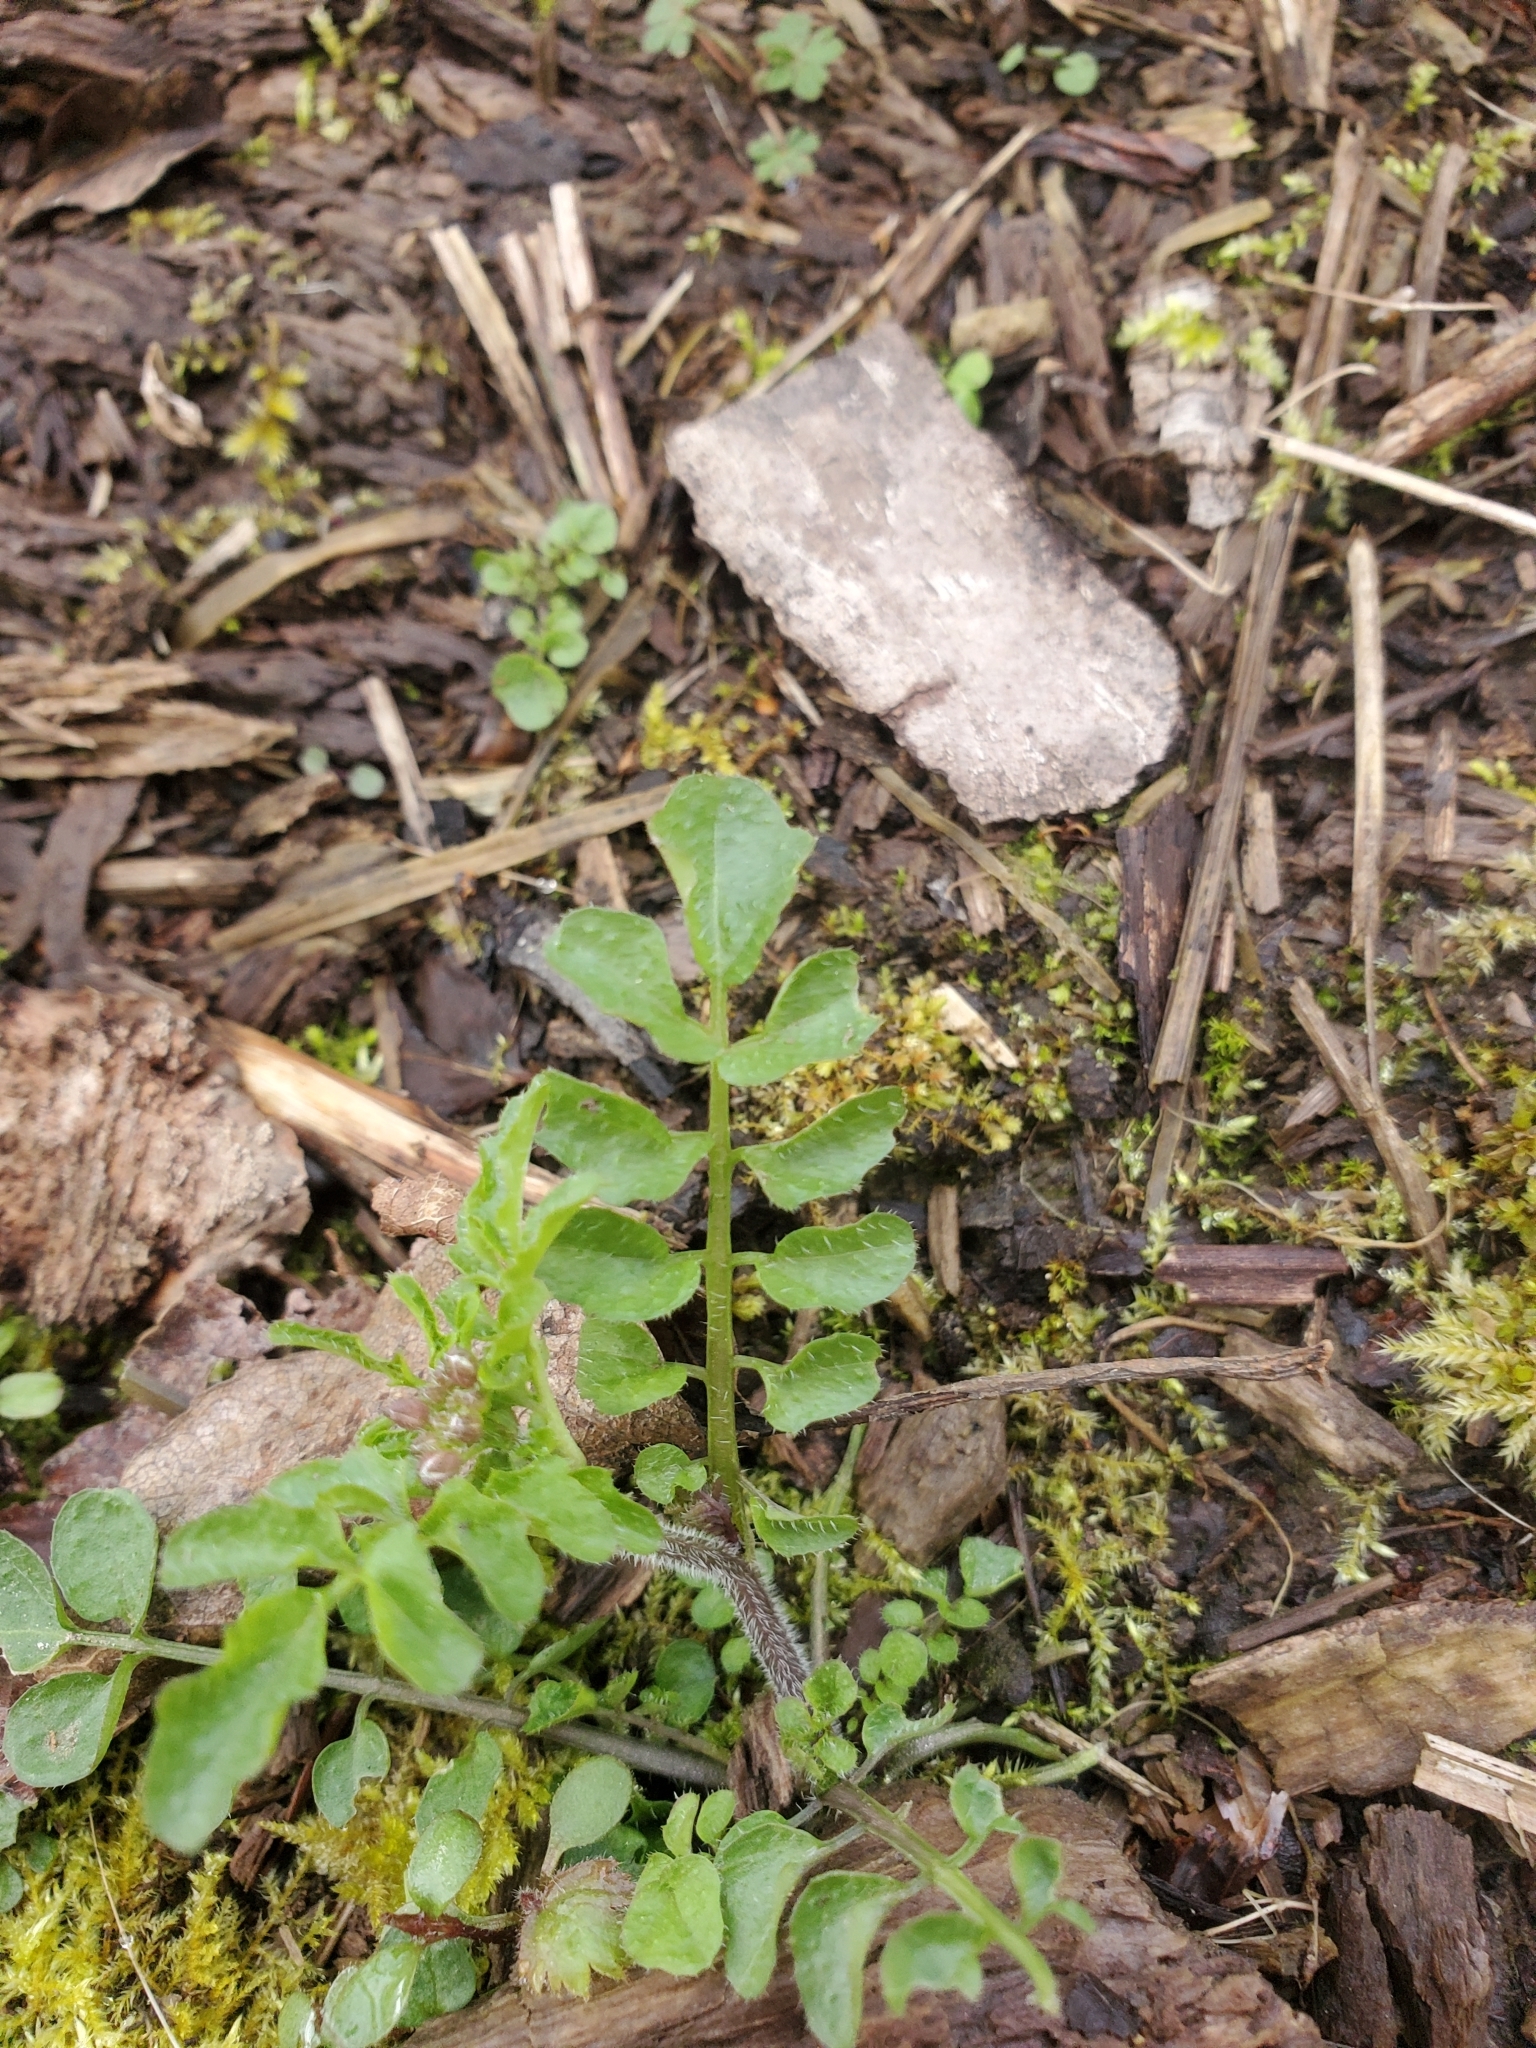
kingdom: Plantae
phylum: Tracheophyta
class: Magnoliopsida
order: Brassicales
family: Brassicaceae
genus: Cardamine
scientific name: Cardamine flexuosa
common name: Woodland bittercress
